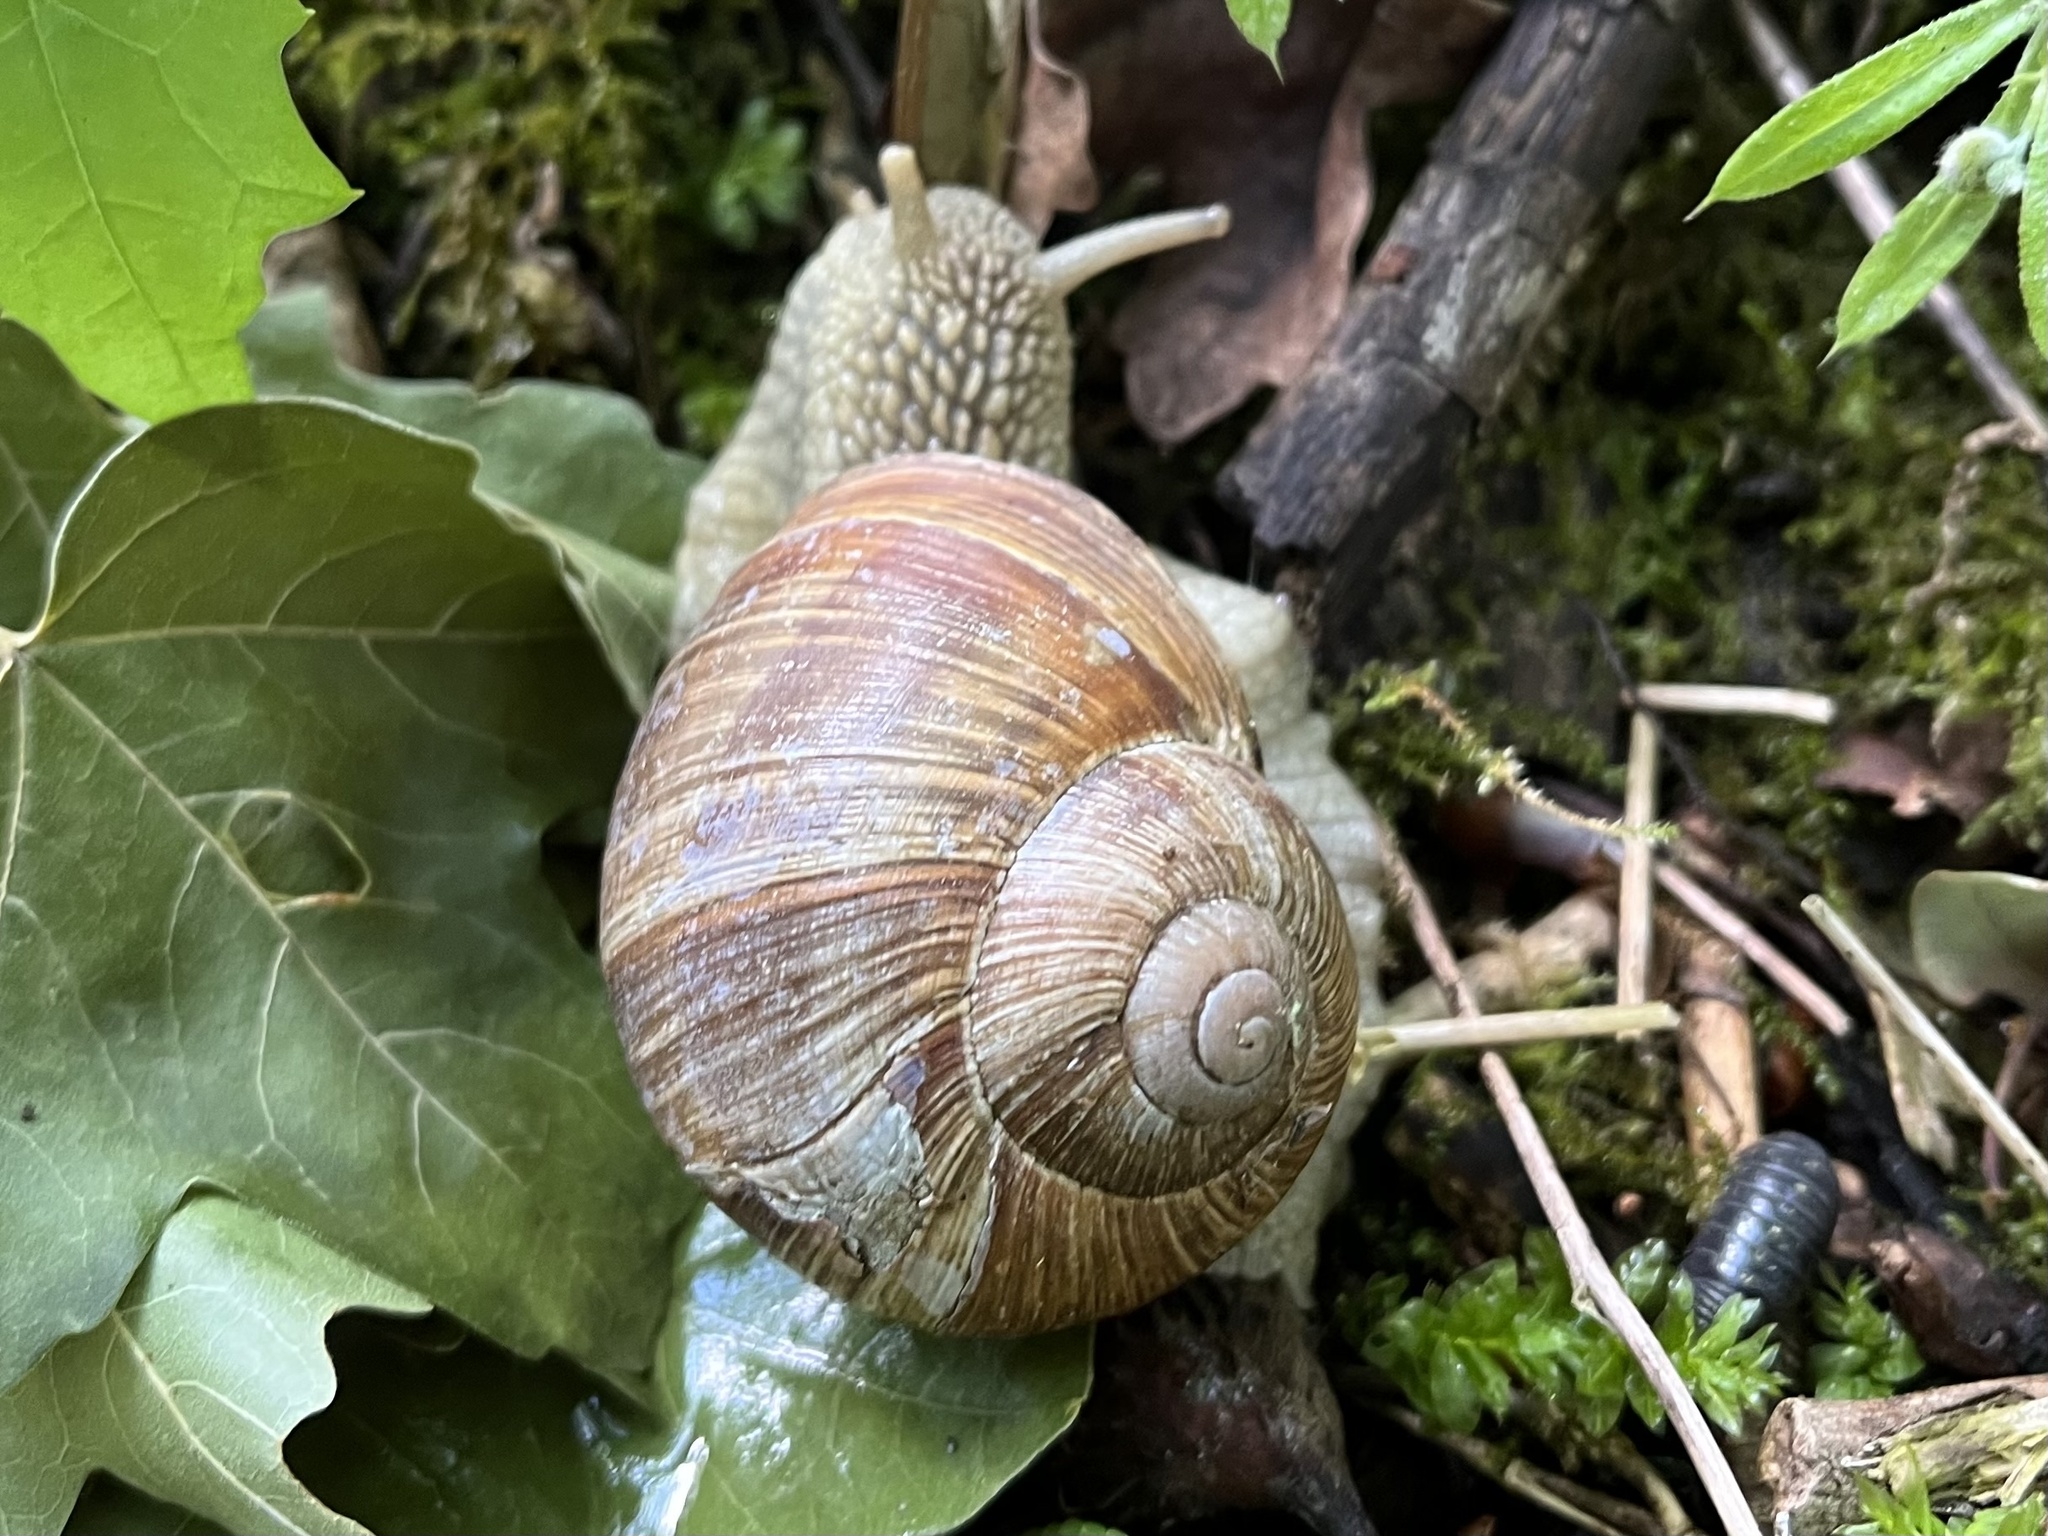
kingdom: Animalia
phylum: Mollusca
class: Gastropoda
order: Stylommatophora
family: Helicidae
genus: Helix
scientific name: Helix pomatia
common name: Roman snail
